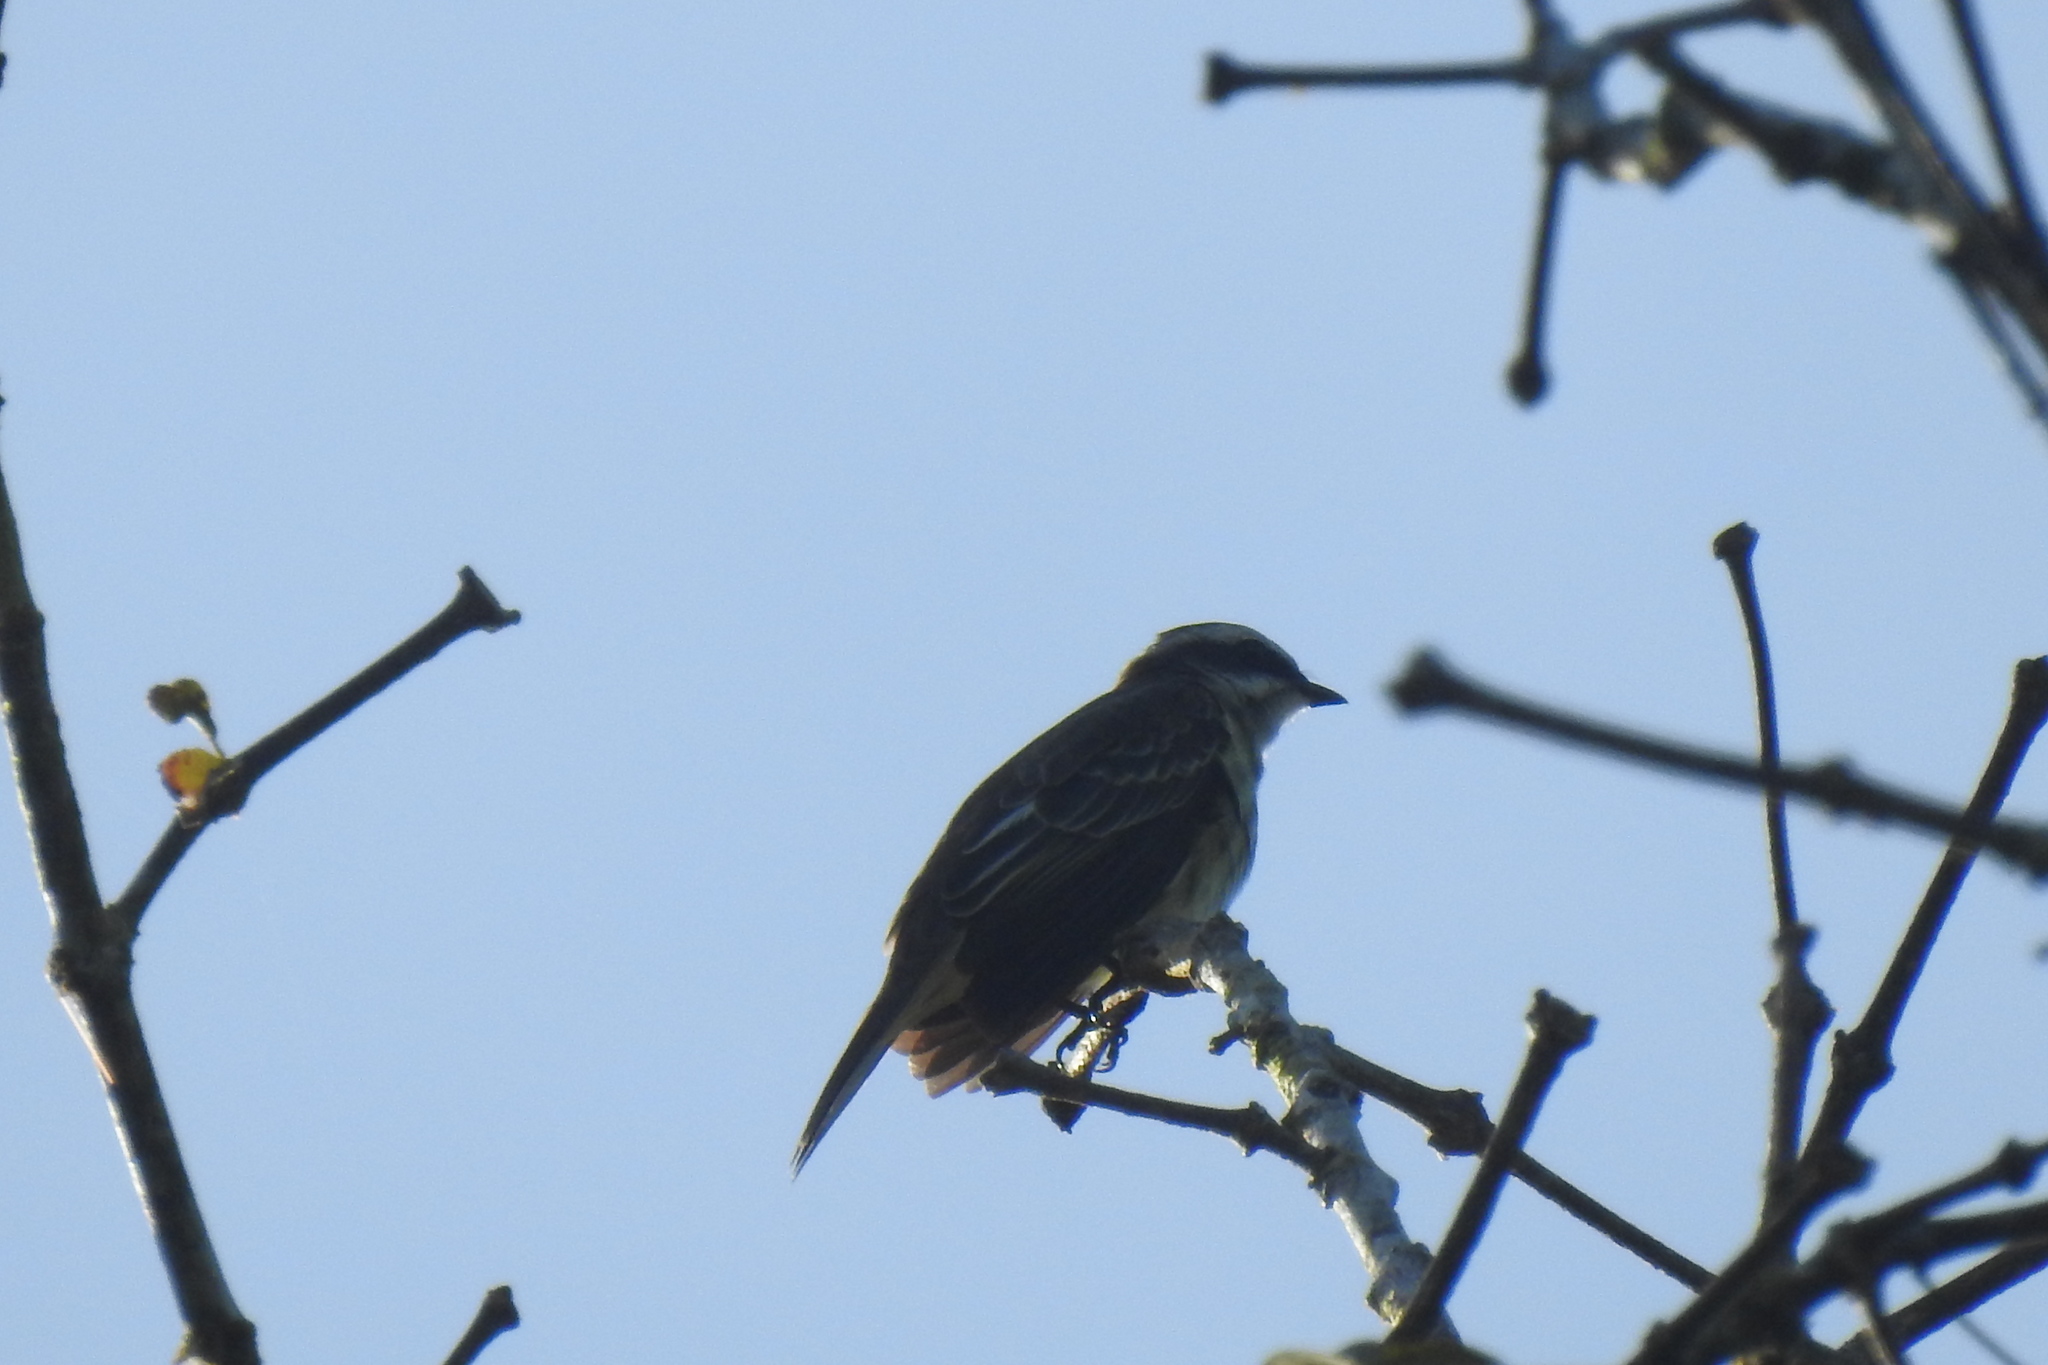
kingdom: Animalia
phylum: Chordata
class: Aves
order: Passeriformes
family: Tyrannidae
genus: Legatus
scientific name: Legatus leucophaius
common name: Piratic flycatcher
